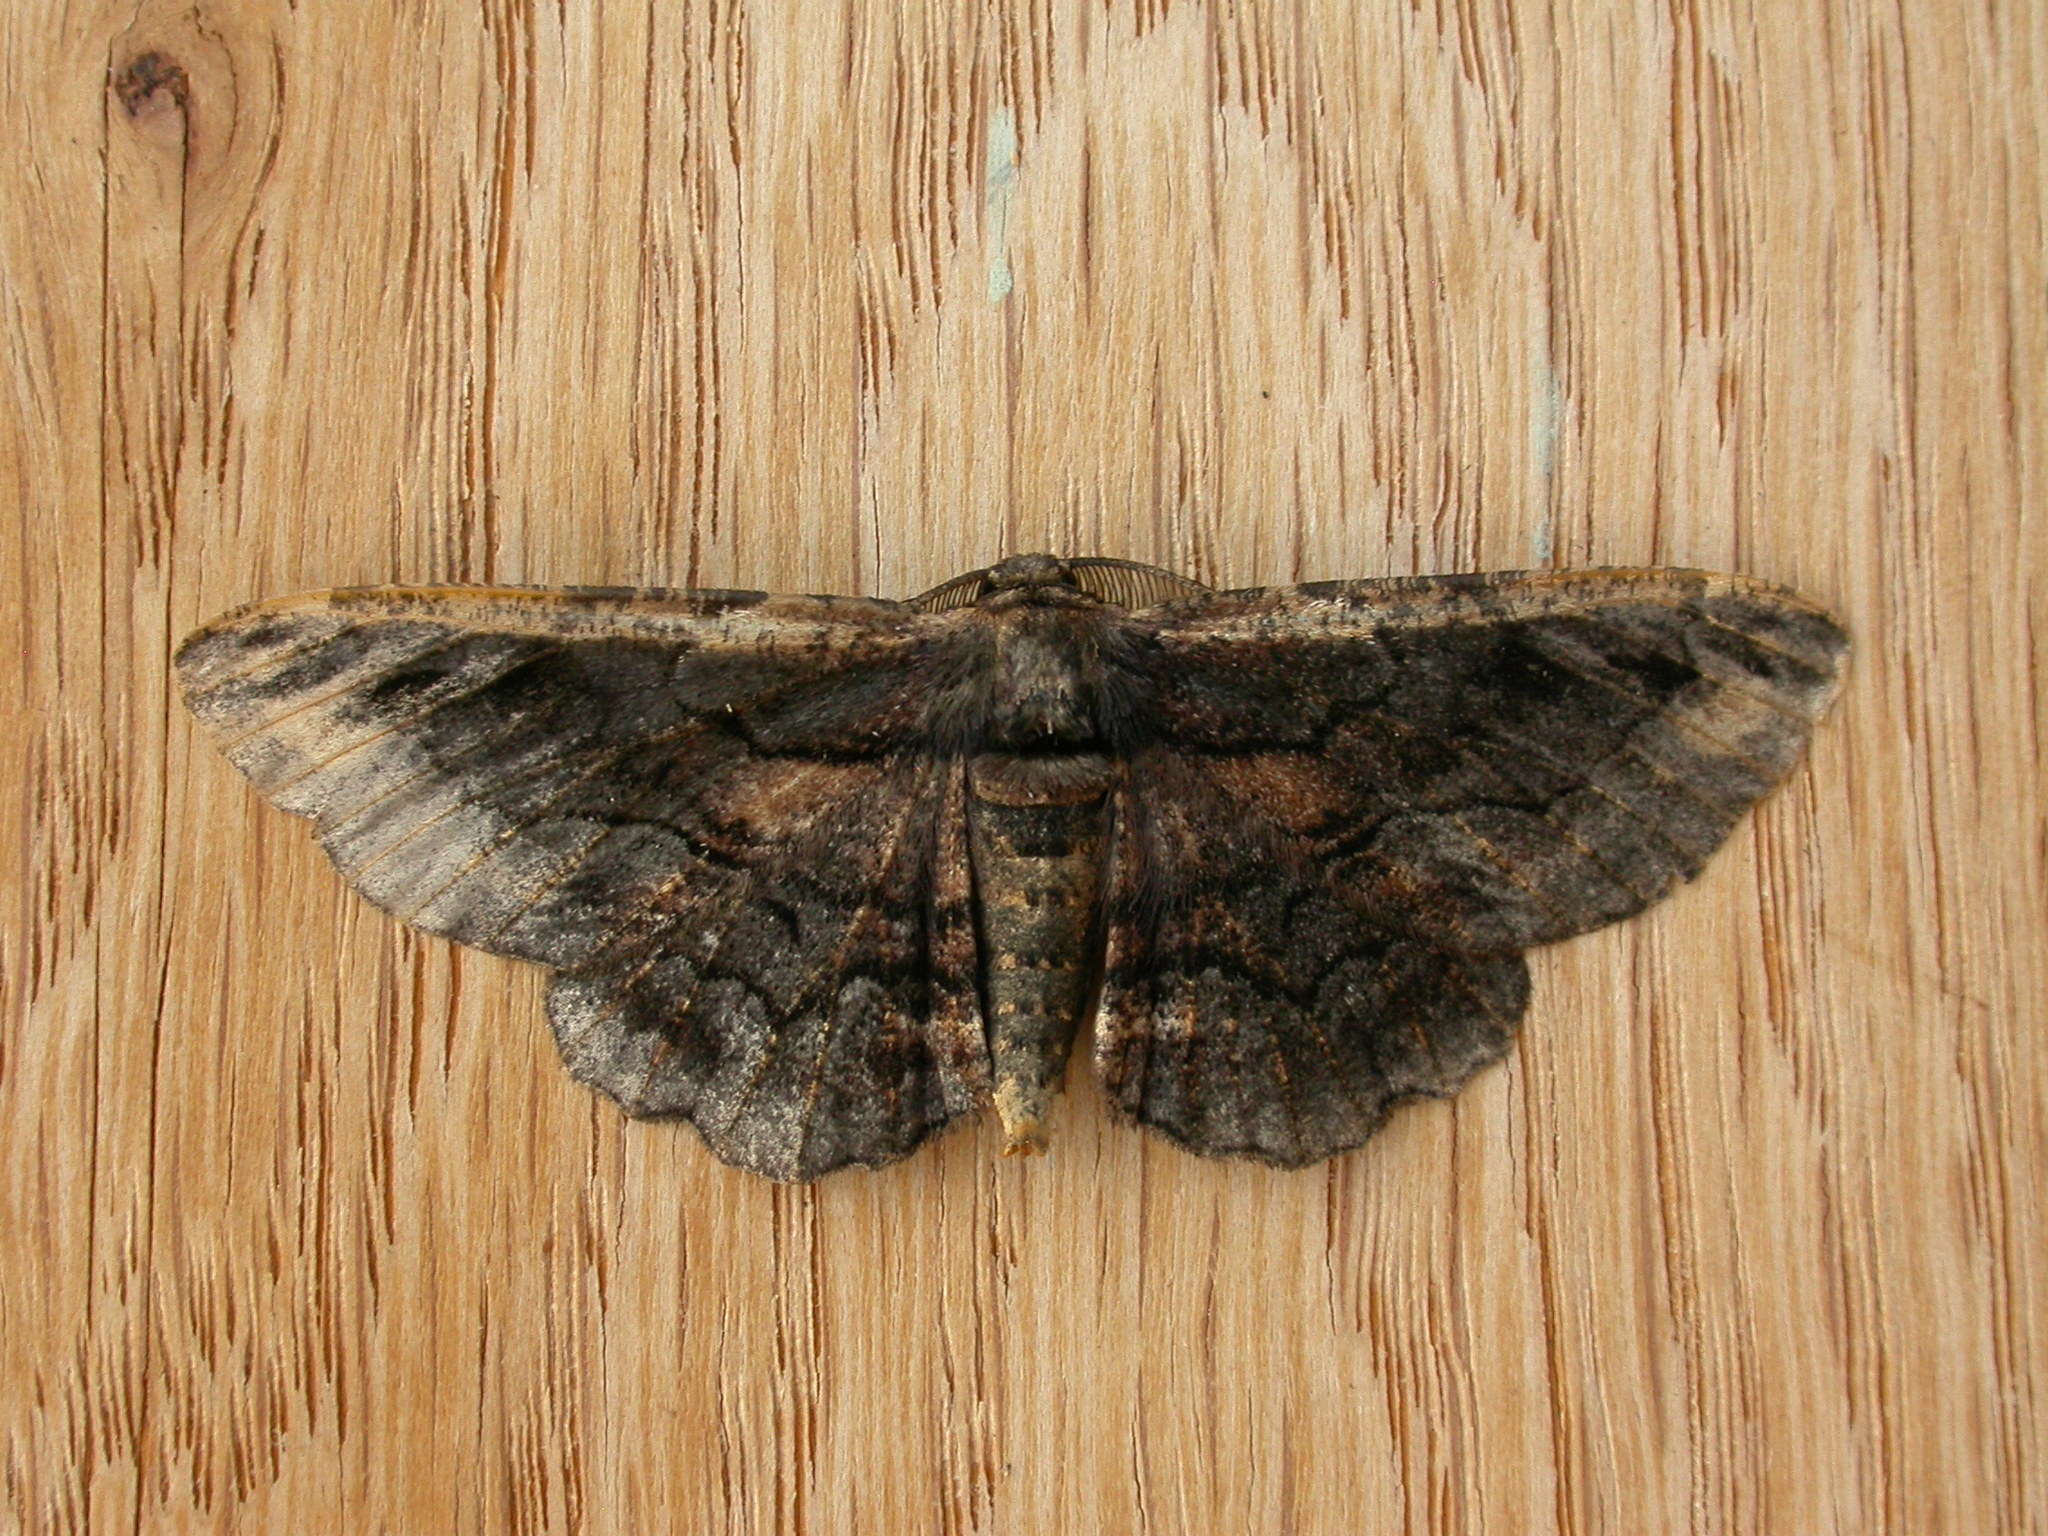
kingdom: Animalia
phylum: Arthropoda
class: Insecta
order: Lepidoptera
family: Geometridae
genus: Pholodes
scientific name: Pholodes sinistraria
